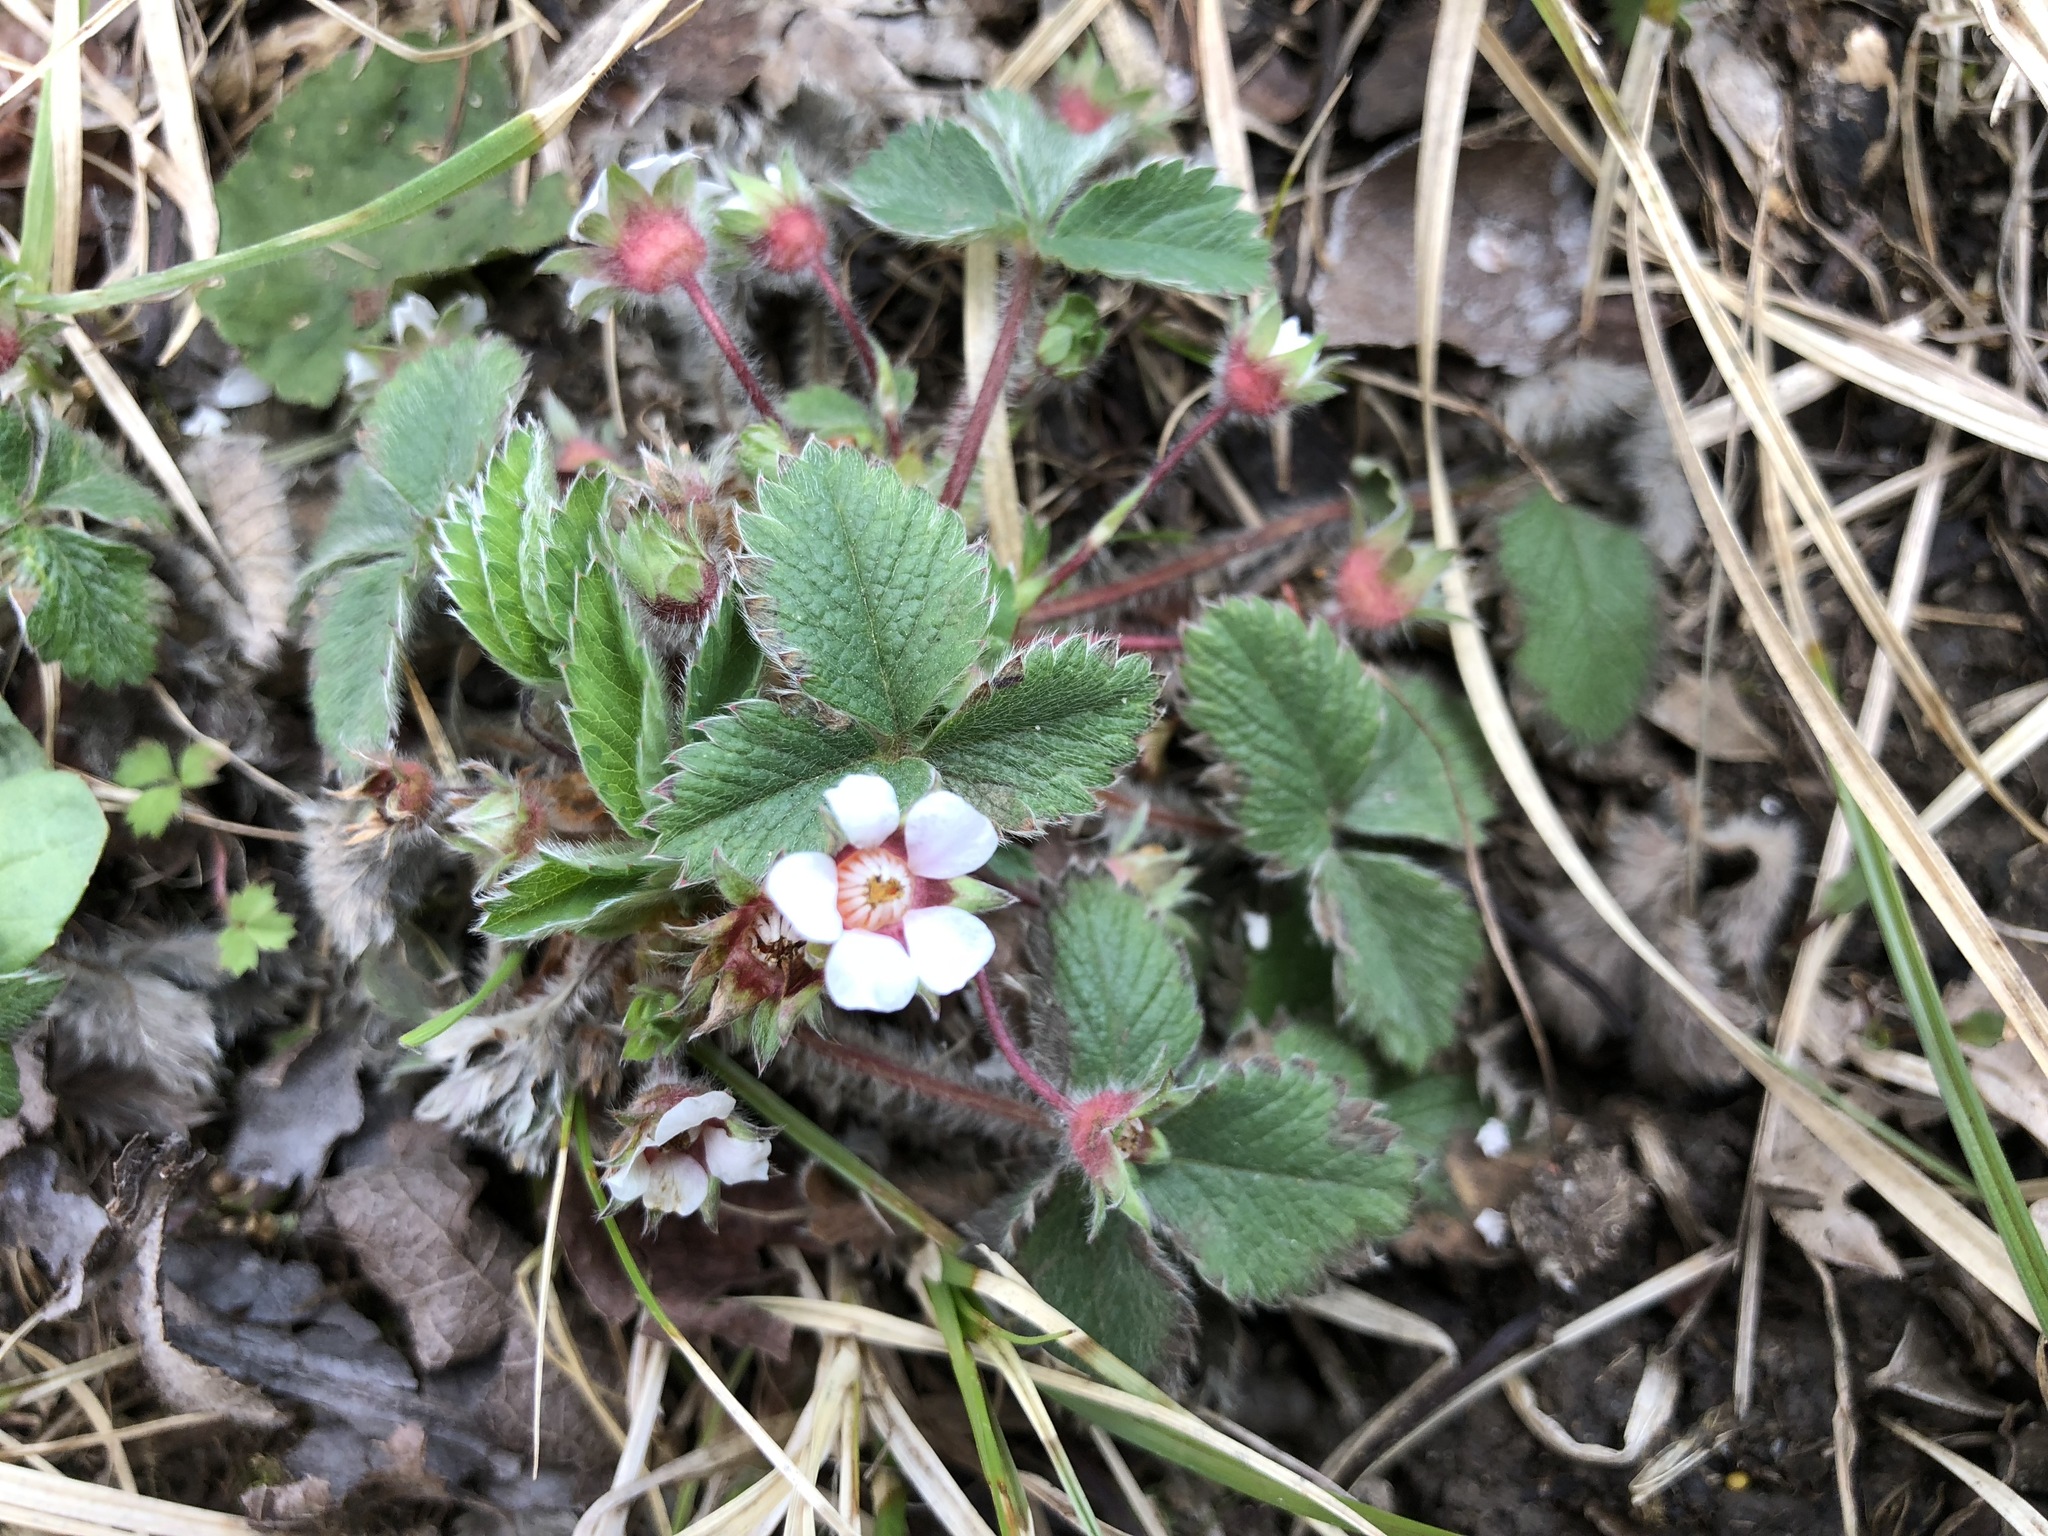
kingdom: Plantae
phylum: Tracheophyta
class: Magnoliopsida
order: Rosales
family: Rosaceae
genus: Potentilla
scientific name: Potentilla micrantha
